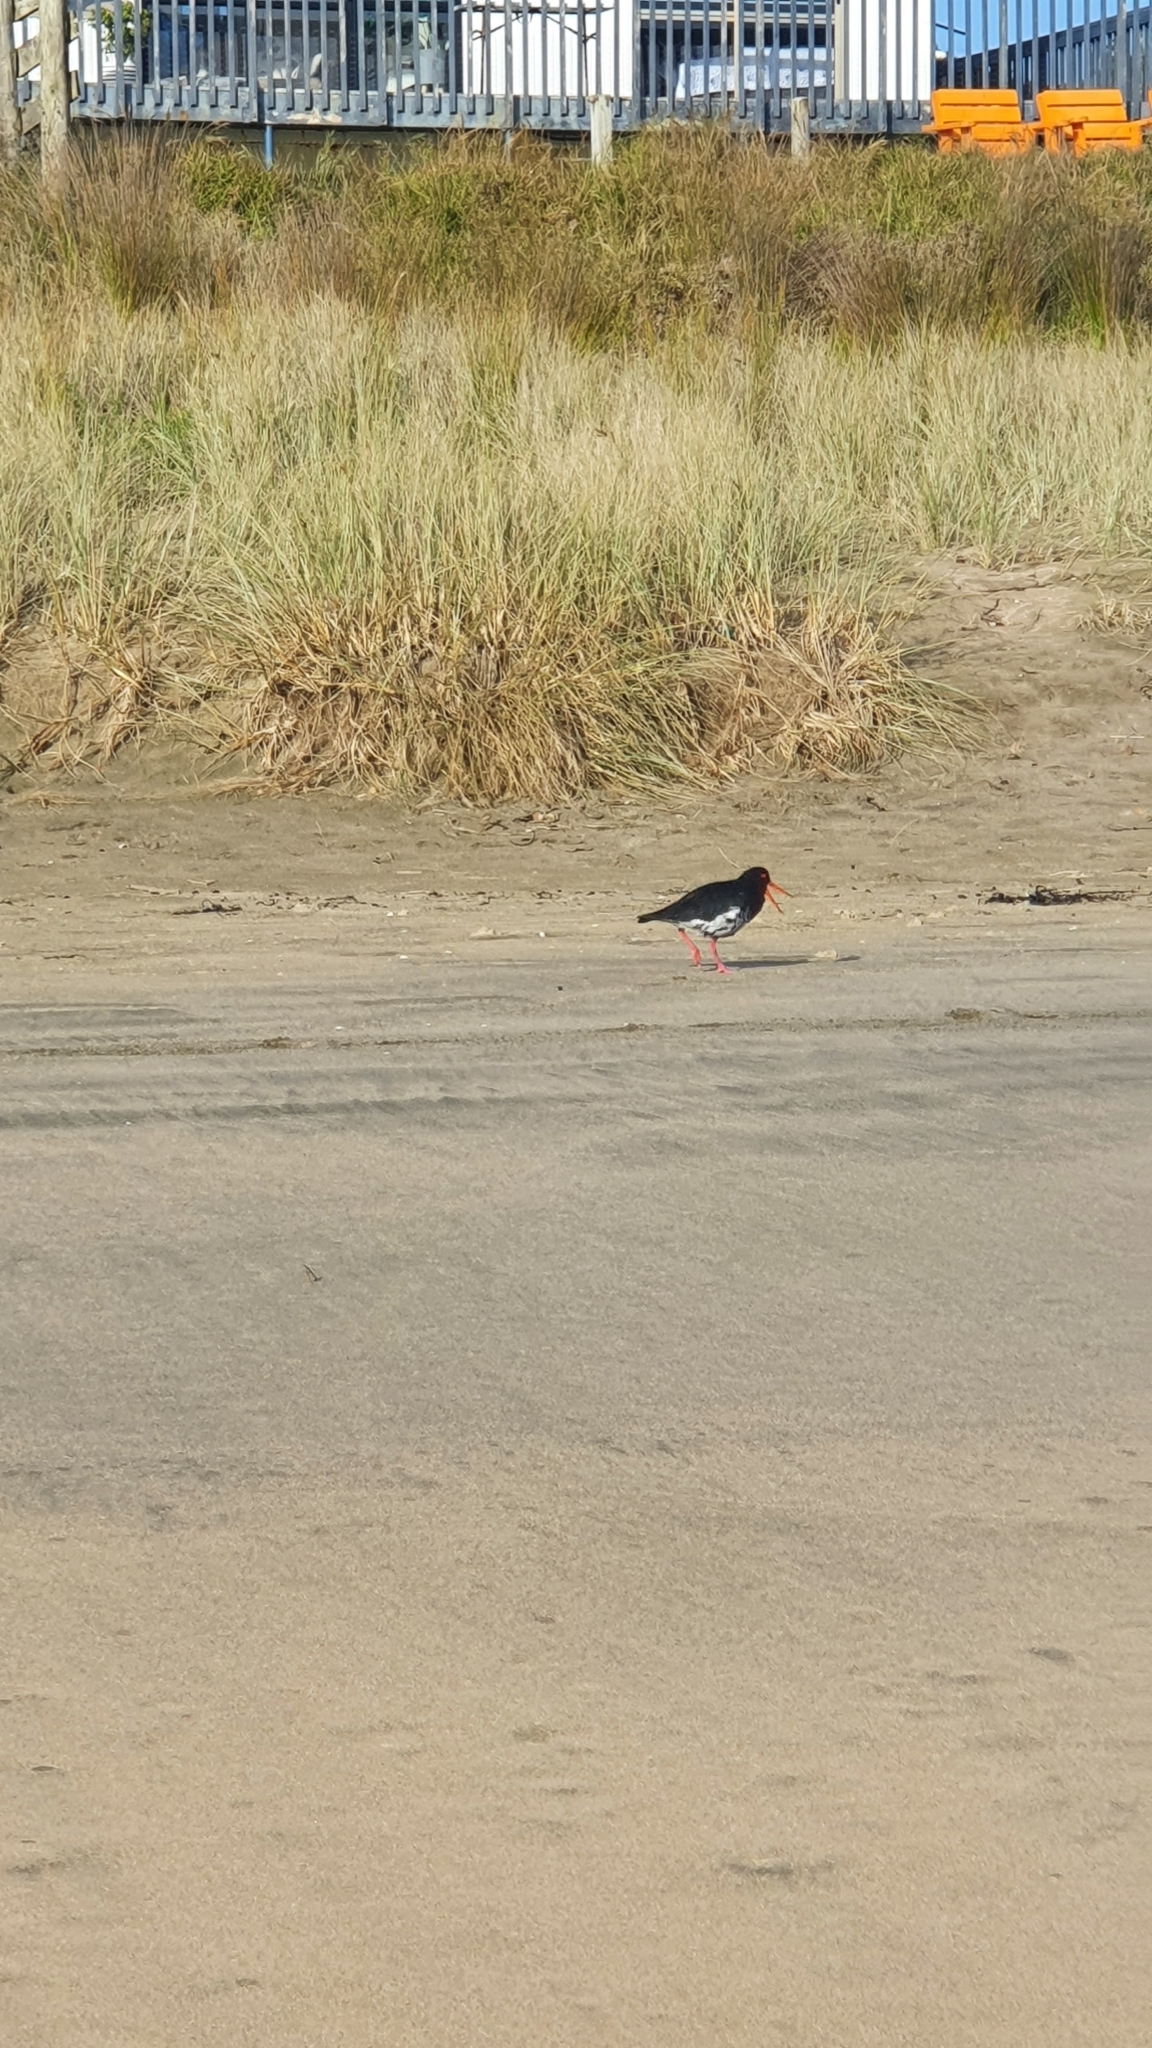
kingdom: Animalia
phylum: Chordata
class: Aves
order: Charadriiformes
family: Haematopodidae
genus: Haematopus
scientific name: Haematopus unicolor
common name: Variable oystercatcher
